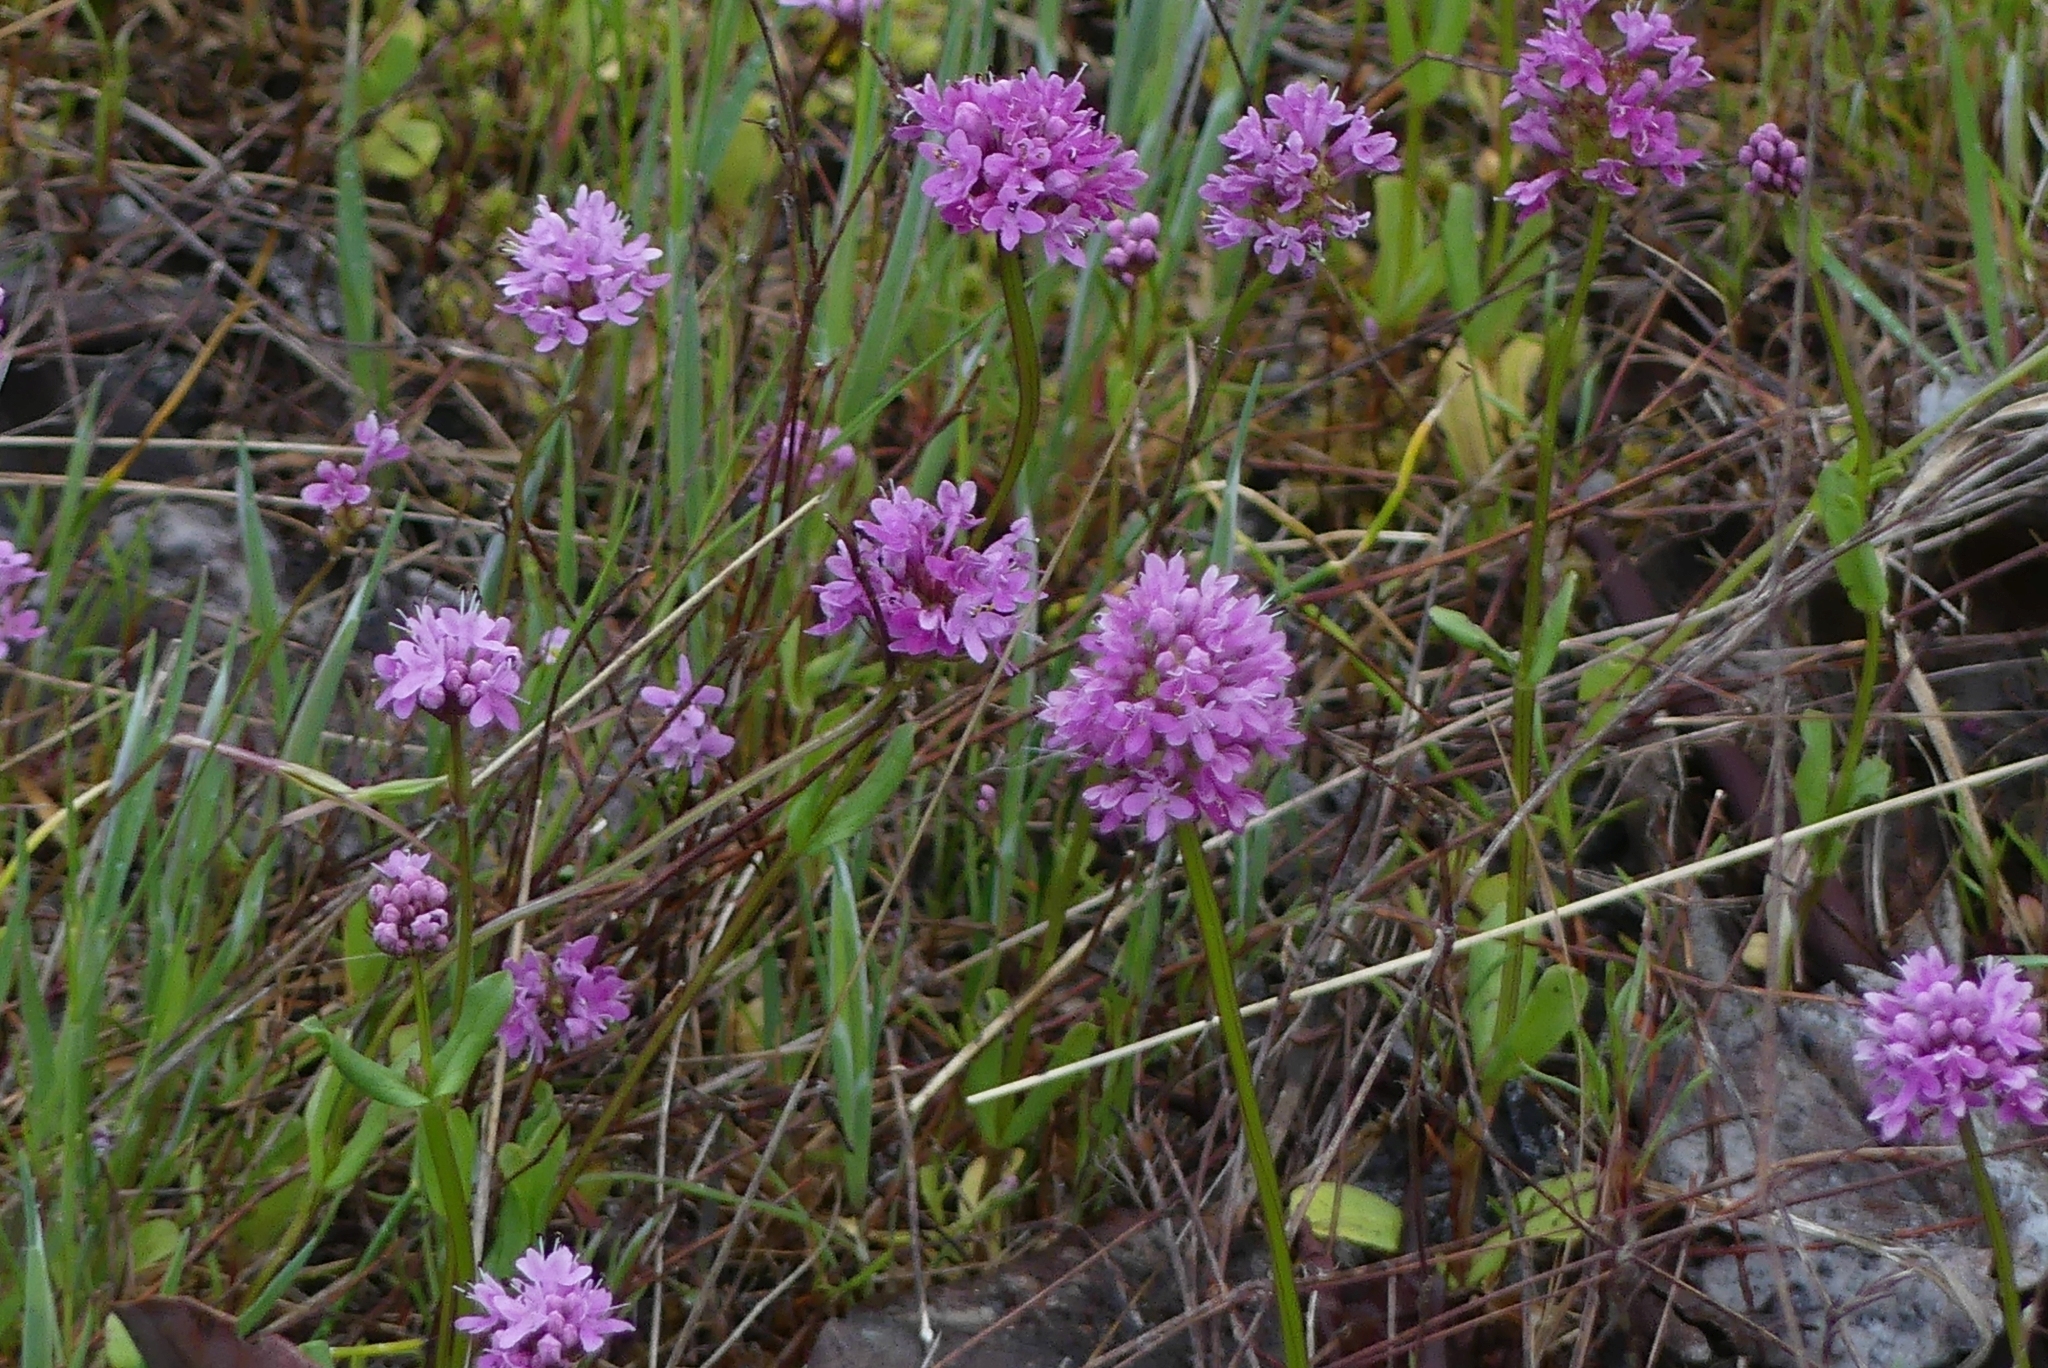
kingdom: Plantae
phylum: Tracheophyta
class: Magnoliopsida
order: Dipsacales
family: Caprifoliaceae
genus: Plectritis
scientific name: Plectritis congesta
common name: Pink plectritis
